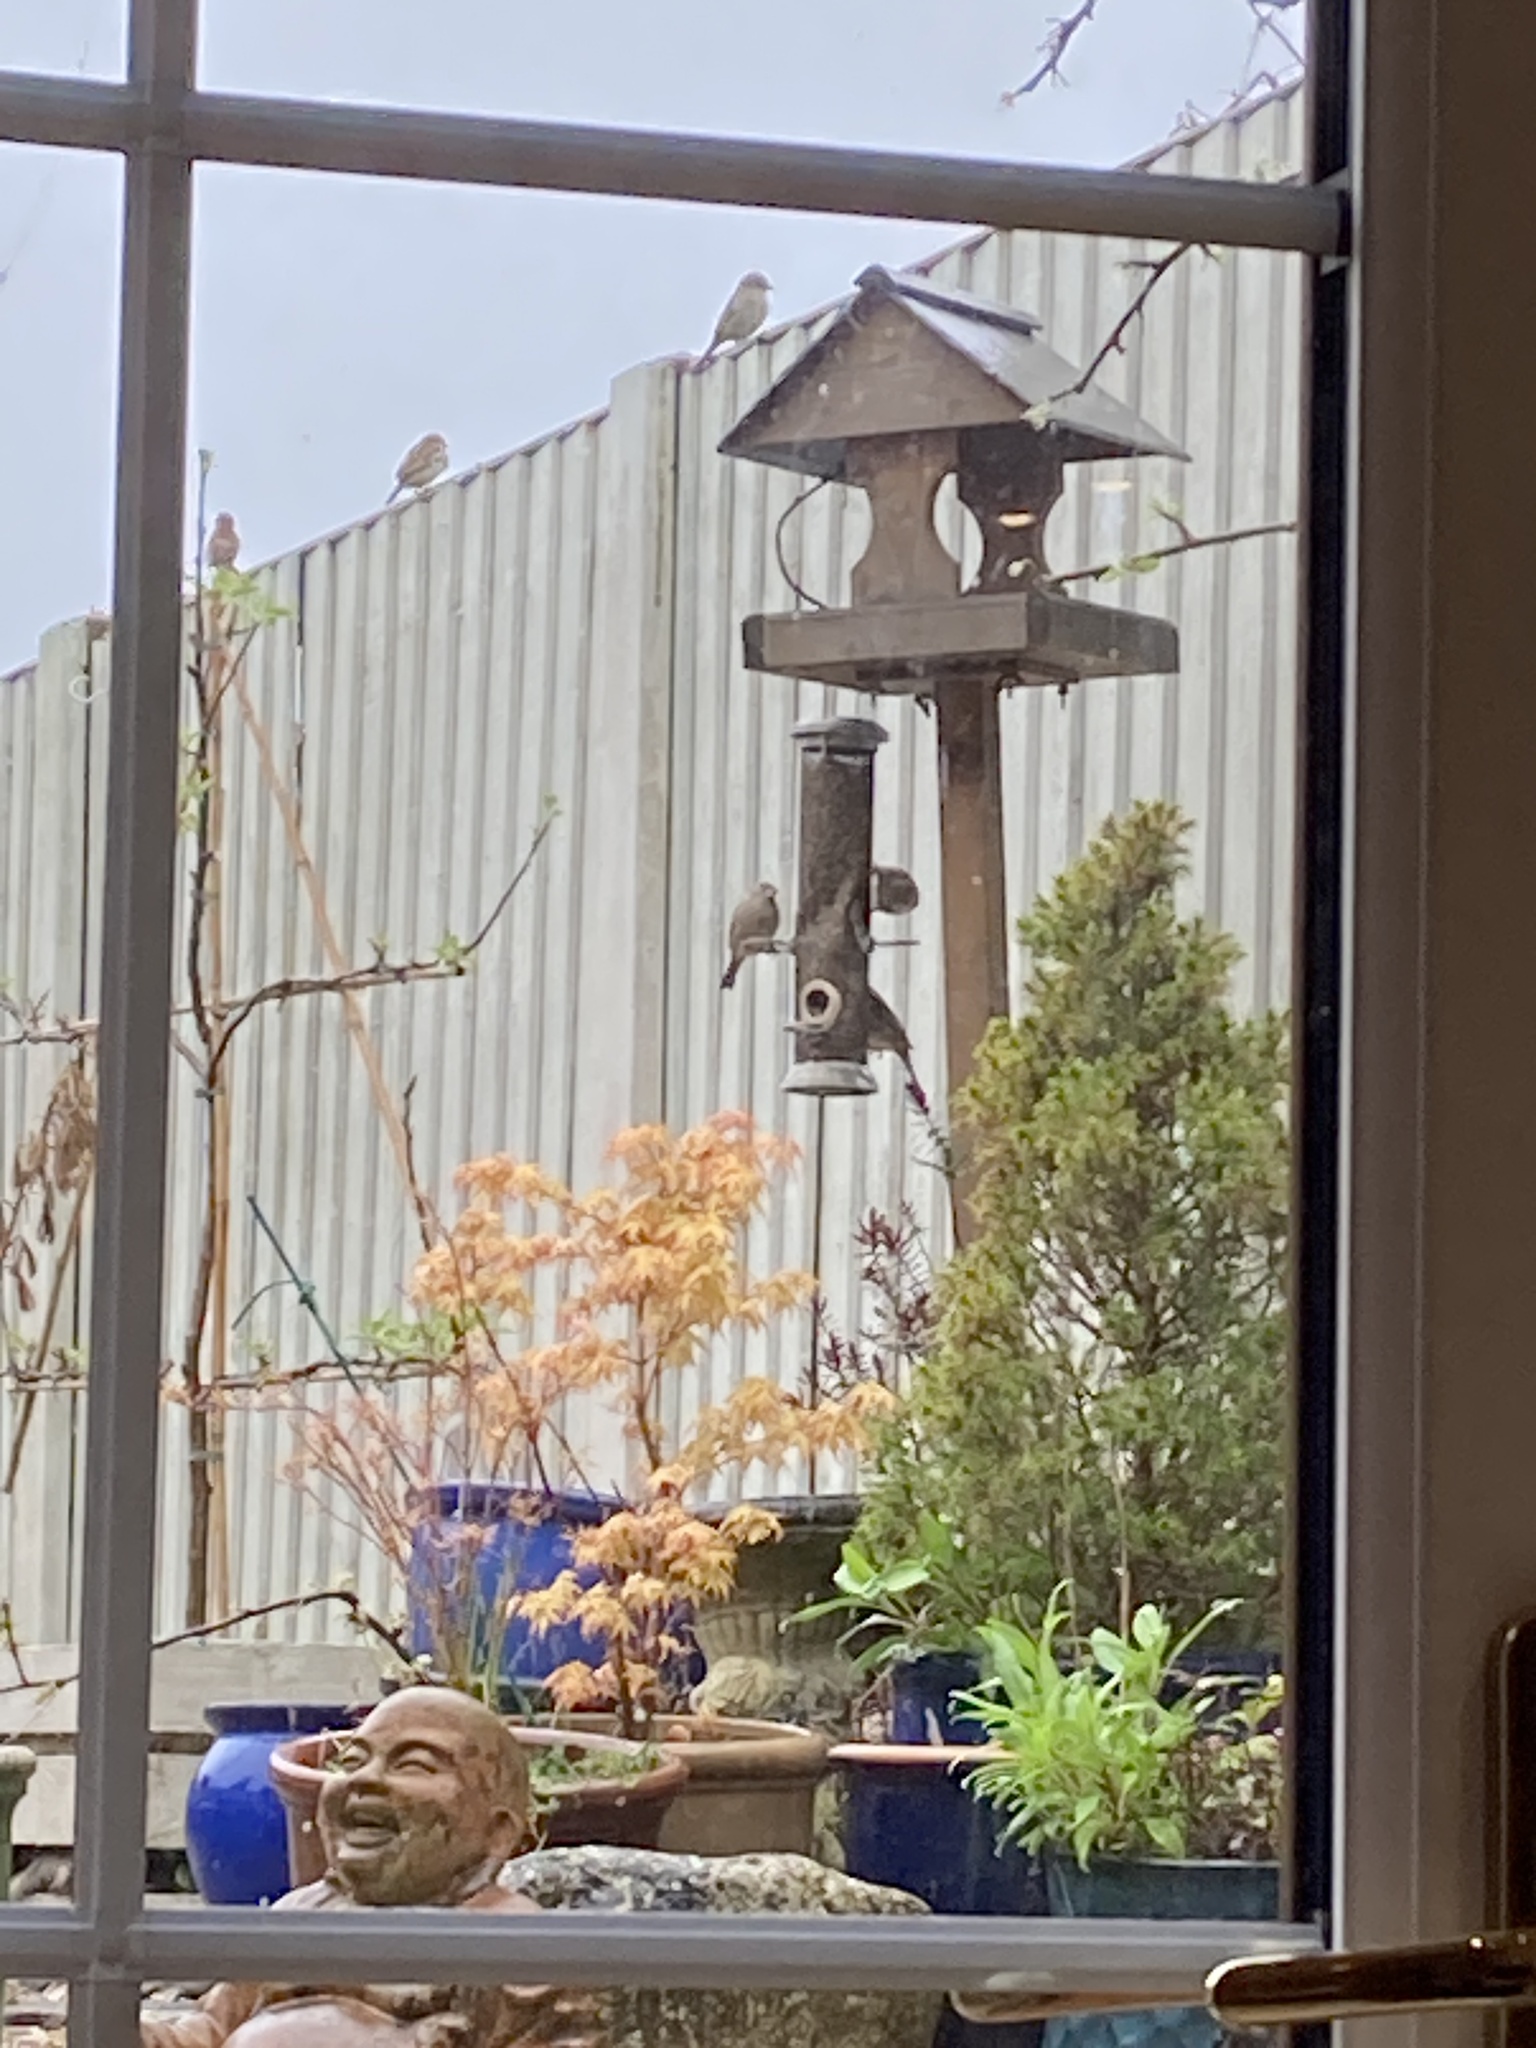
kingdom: Animalia
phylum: Chordata
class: Aves
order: Passeriformes
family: Passeridae
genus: Passer
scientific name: Passer domesticus
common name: House sparrow
